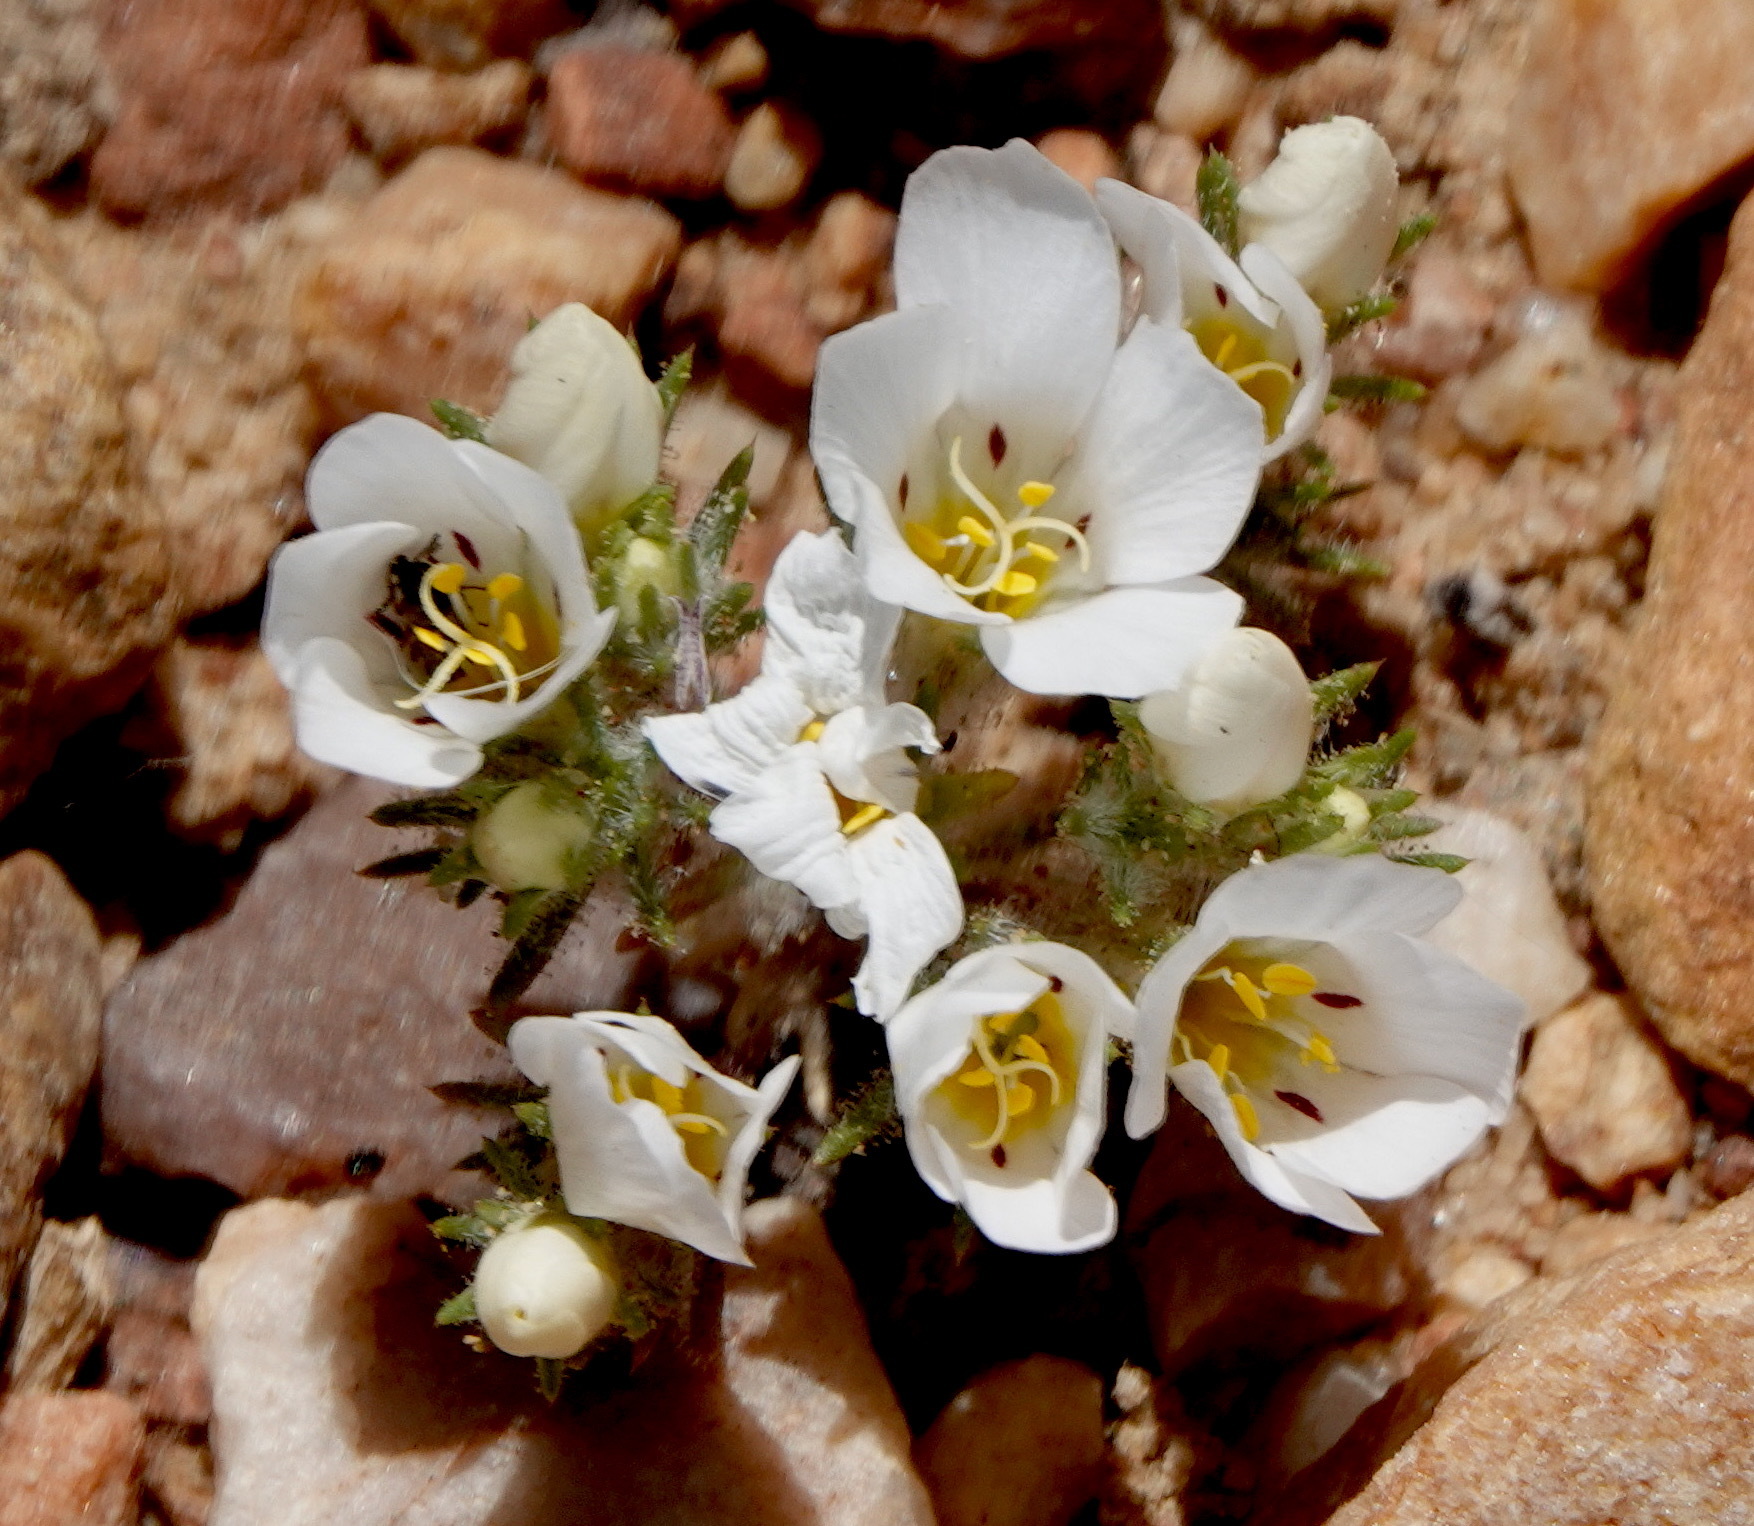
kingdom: Plantae
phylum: Tracheophyta
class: Magnoliopsida
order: Ericales
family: Polemoniaceae
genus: Linanthus
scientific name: Linanthus killipii
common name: Baldwin lake linanthus
